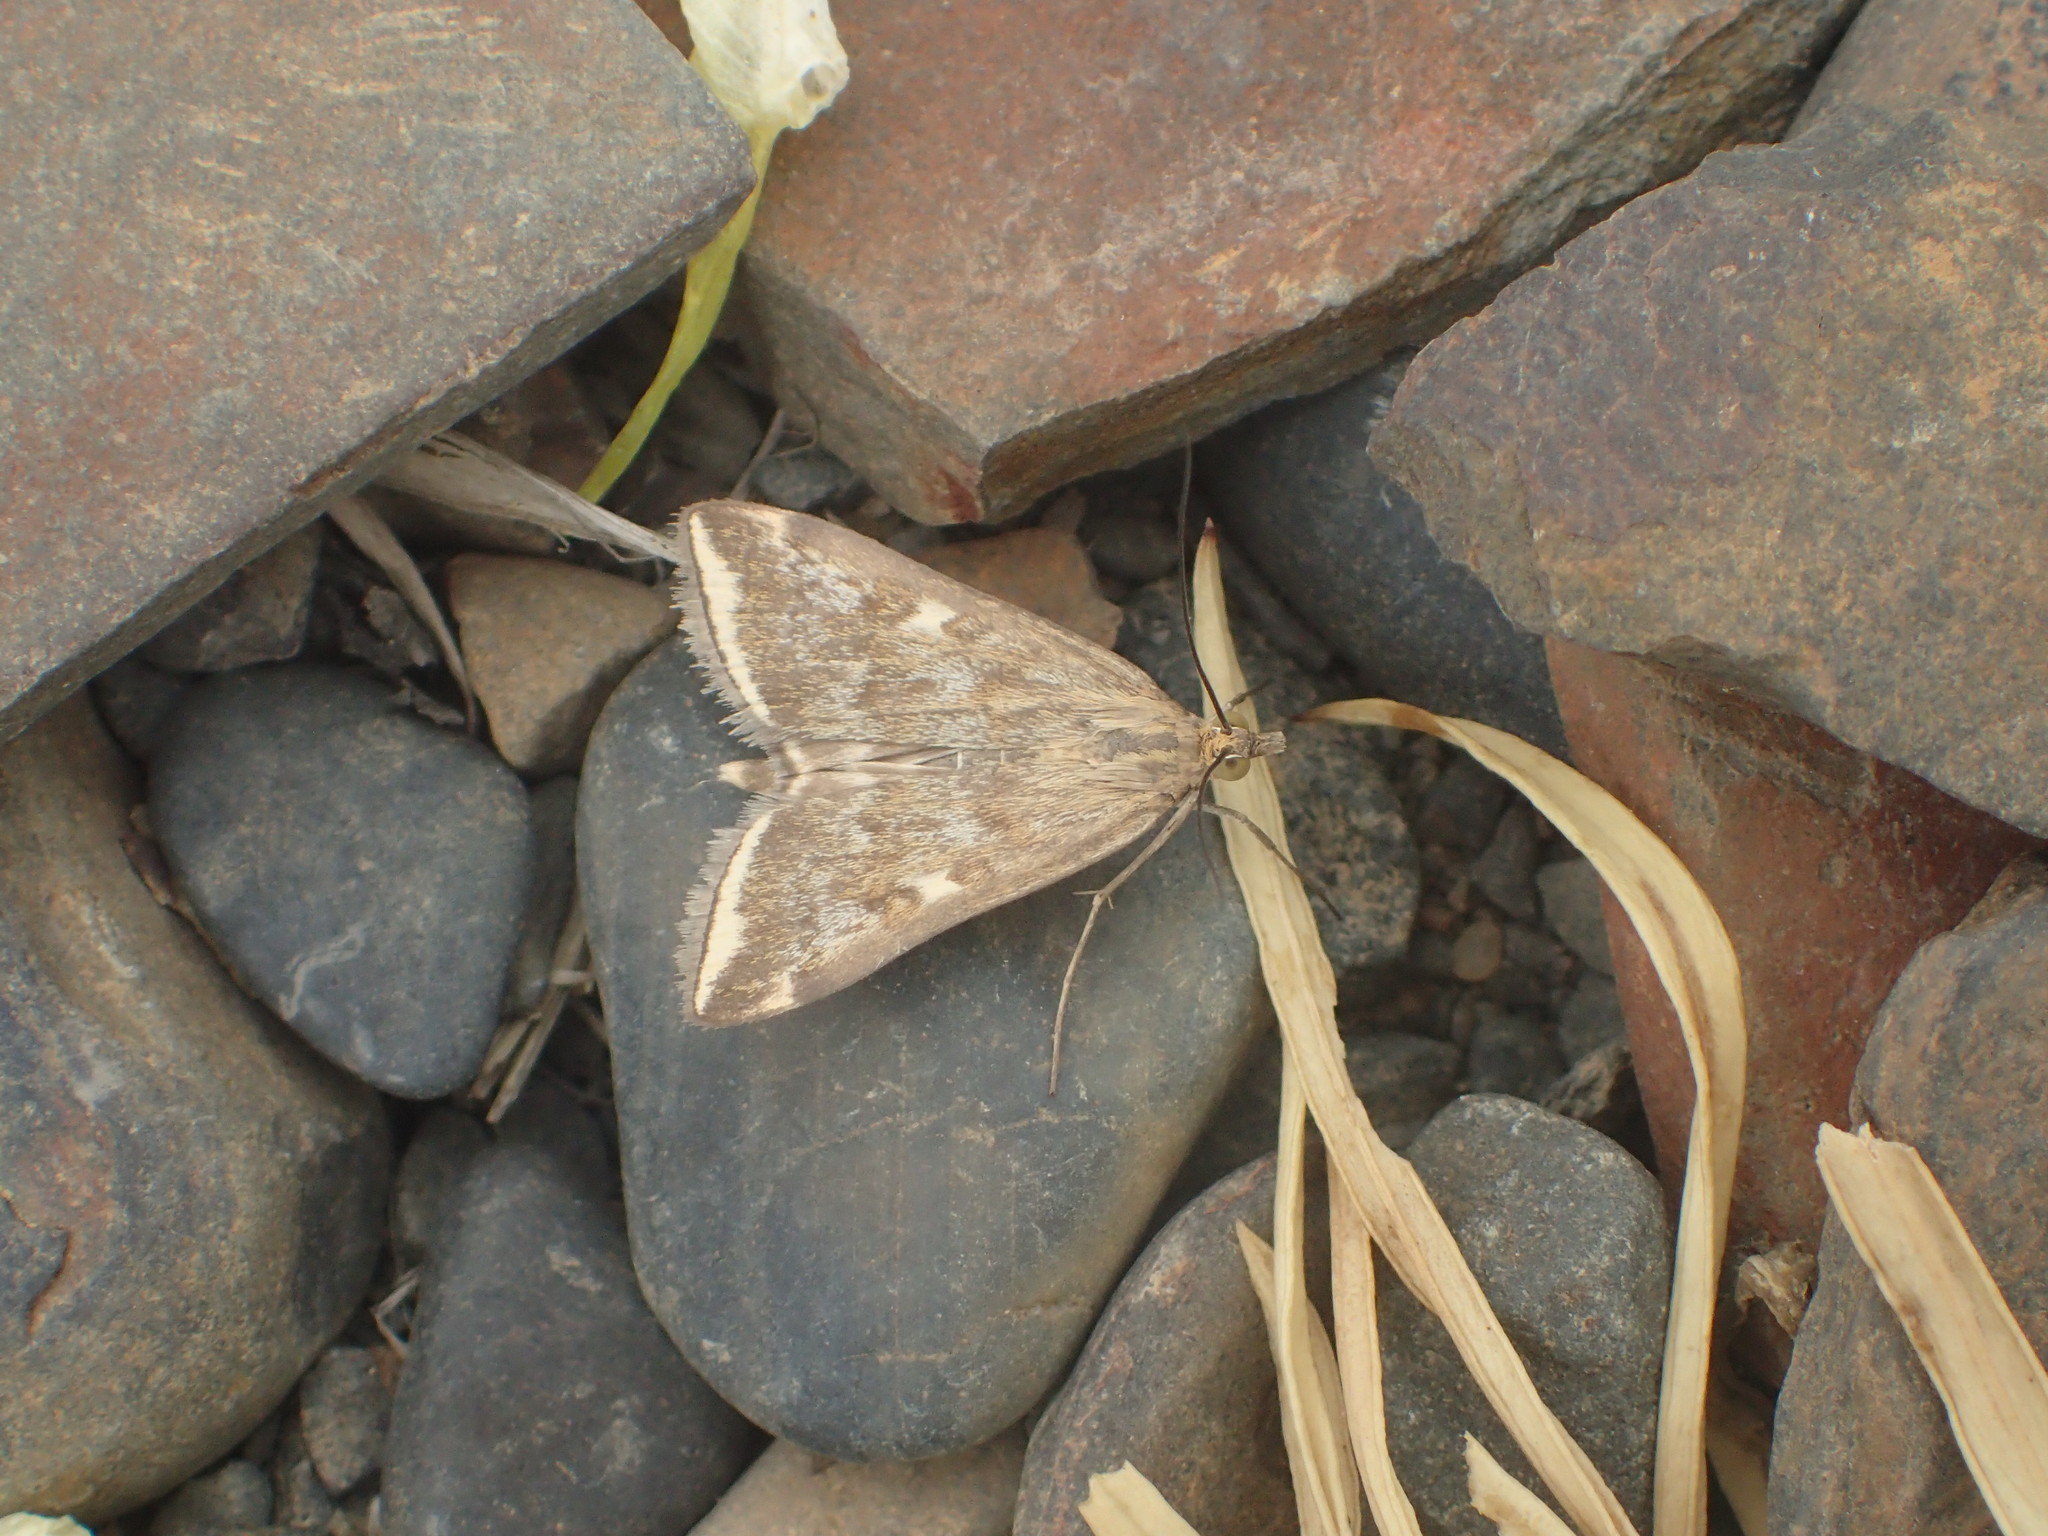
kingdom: Animalia
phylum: Arthropoda
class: Insecta
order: Lepidoptera
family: Crambidae
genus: Loxostege
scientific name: Loxostege
